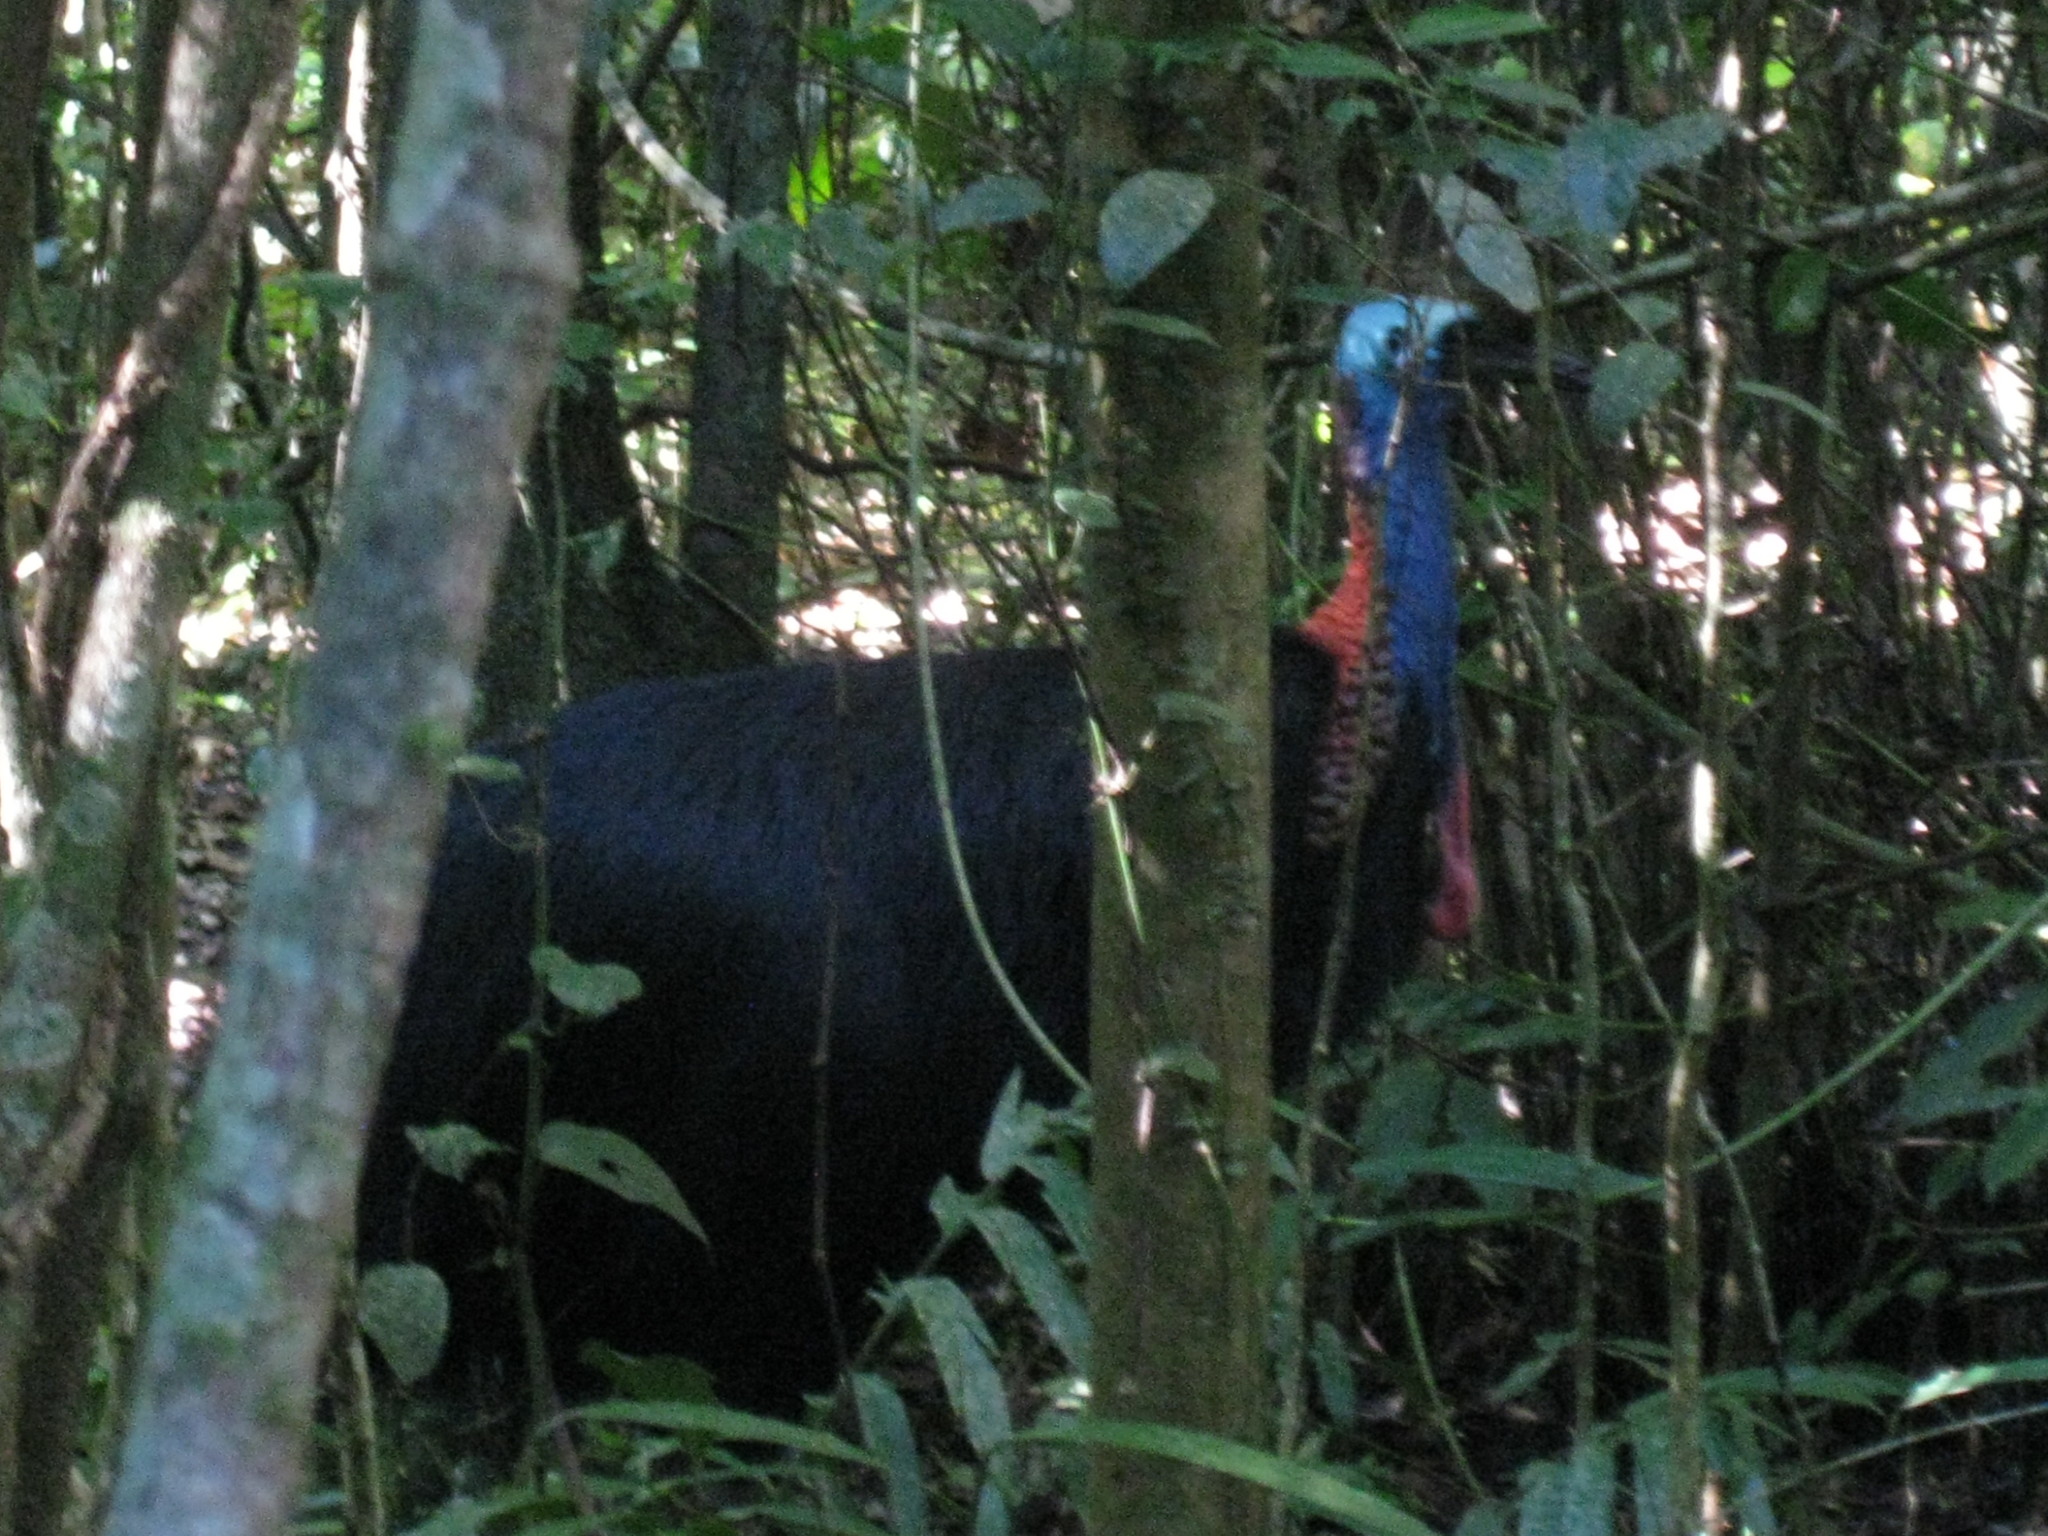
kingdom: Animalia
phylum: Chordata
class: Aves
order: Casuariiformes
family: Casuariidae
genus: Casuarius
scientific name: Casuarius casuarius
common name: Southern cassowary
